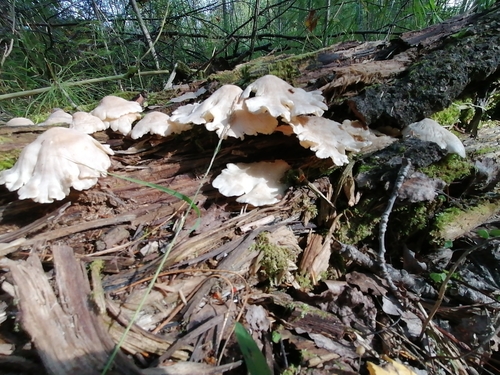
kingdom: Fungi
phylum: Basidiomycota
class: Agaricomycetes
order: Agaricales
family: Lyophyllaceae
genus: Ossicaulis
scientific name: Ossicaulis lignatilis
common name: Mealy oyster
